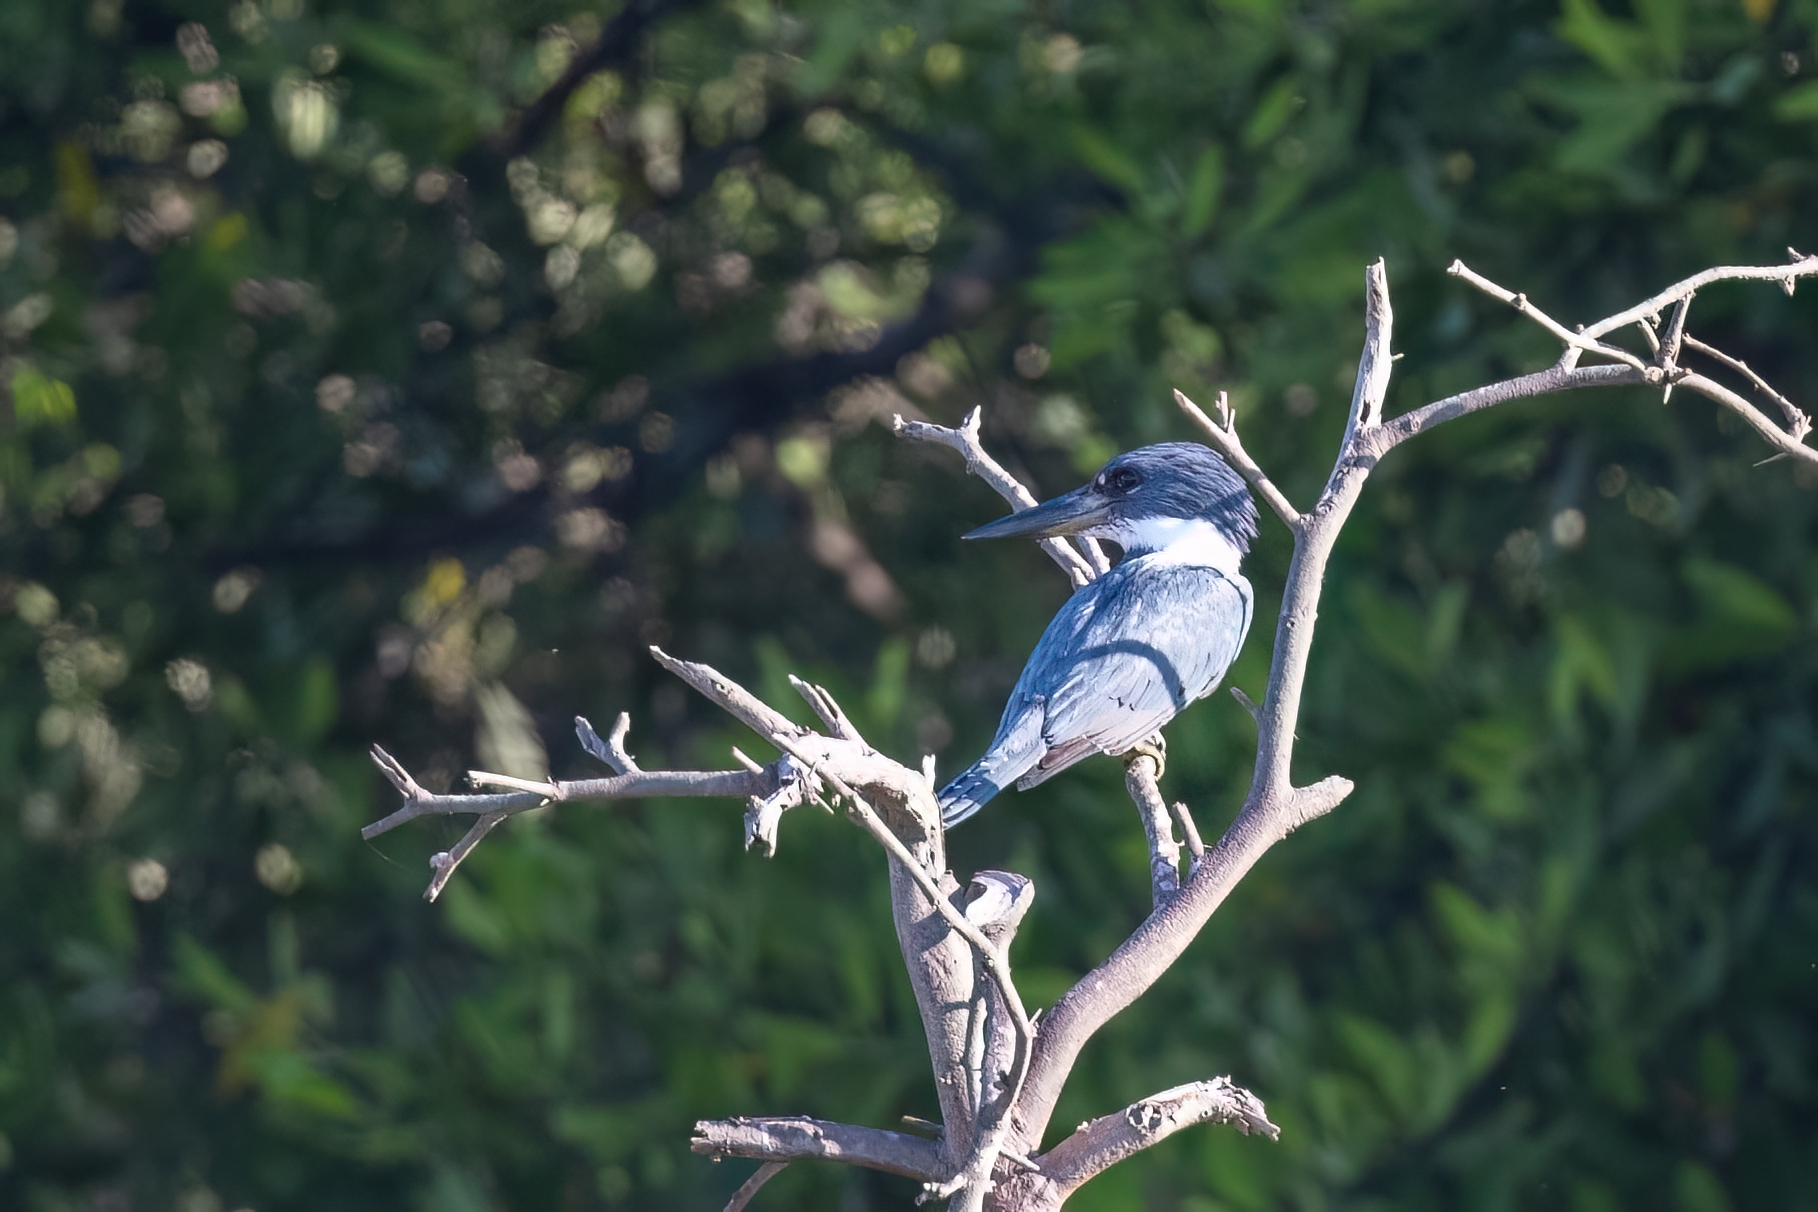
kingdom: Animalia
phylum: Chordata
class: Aves
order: Coraciiformes
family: Alcedinidae
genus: Megaceryle
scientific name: Megaceryle torquata
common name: Ringed kingfisher
